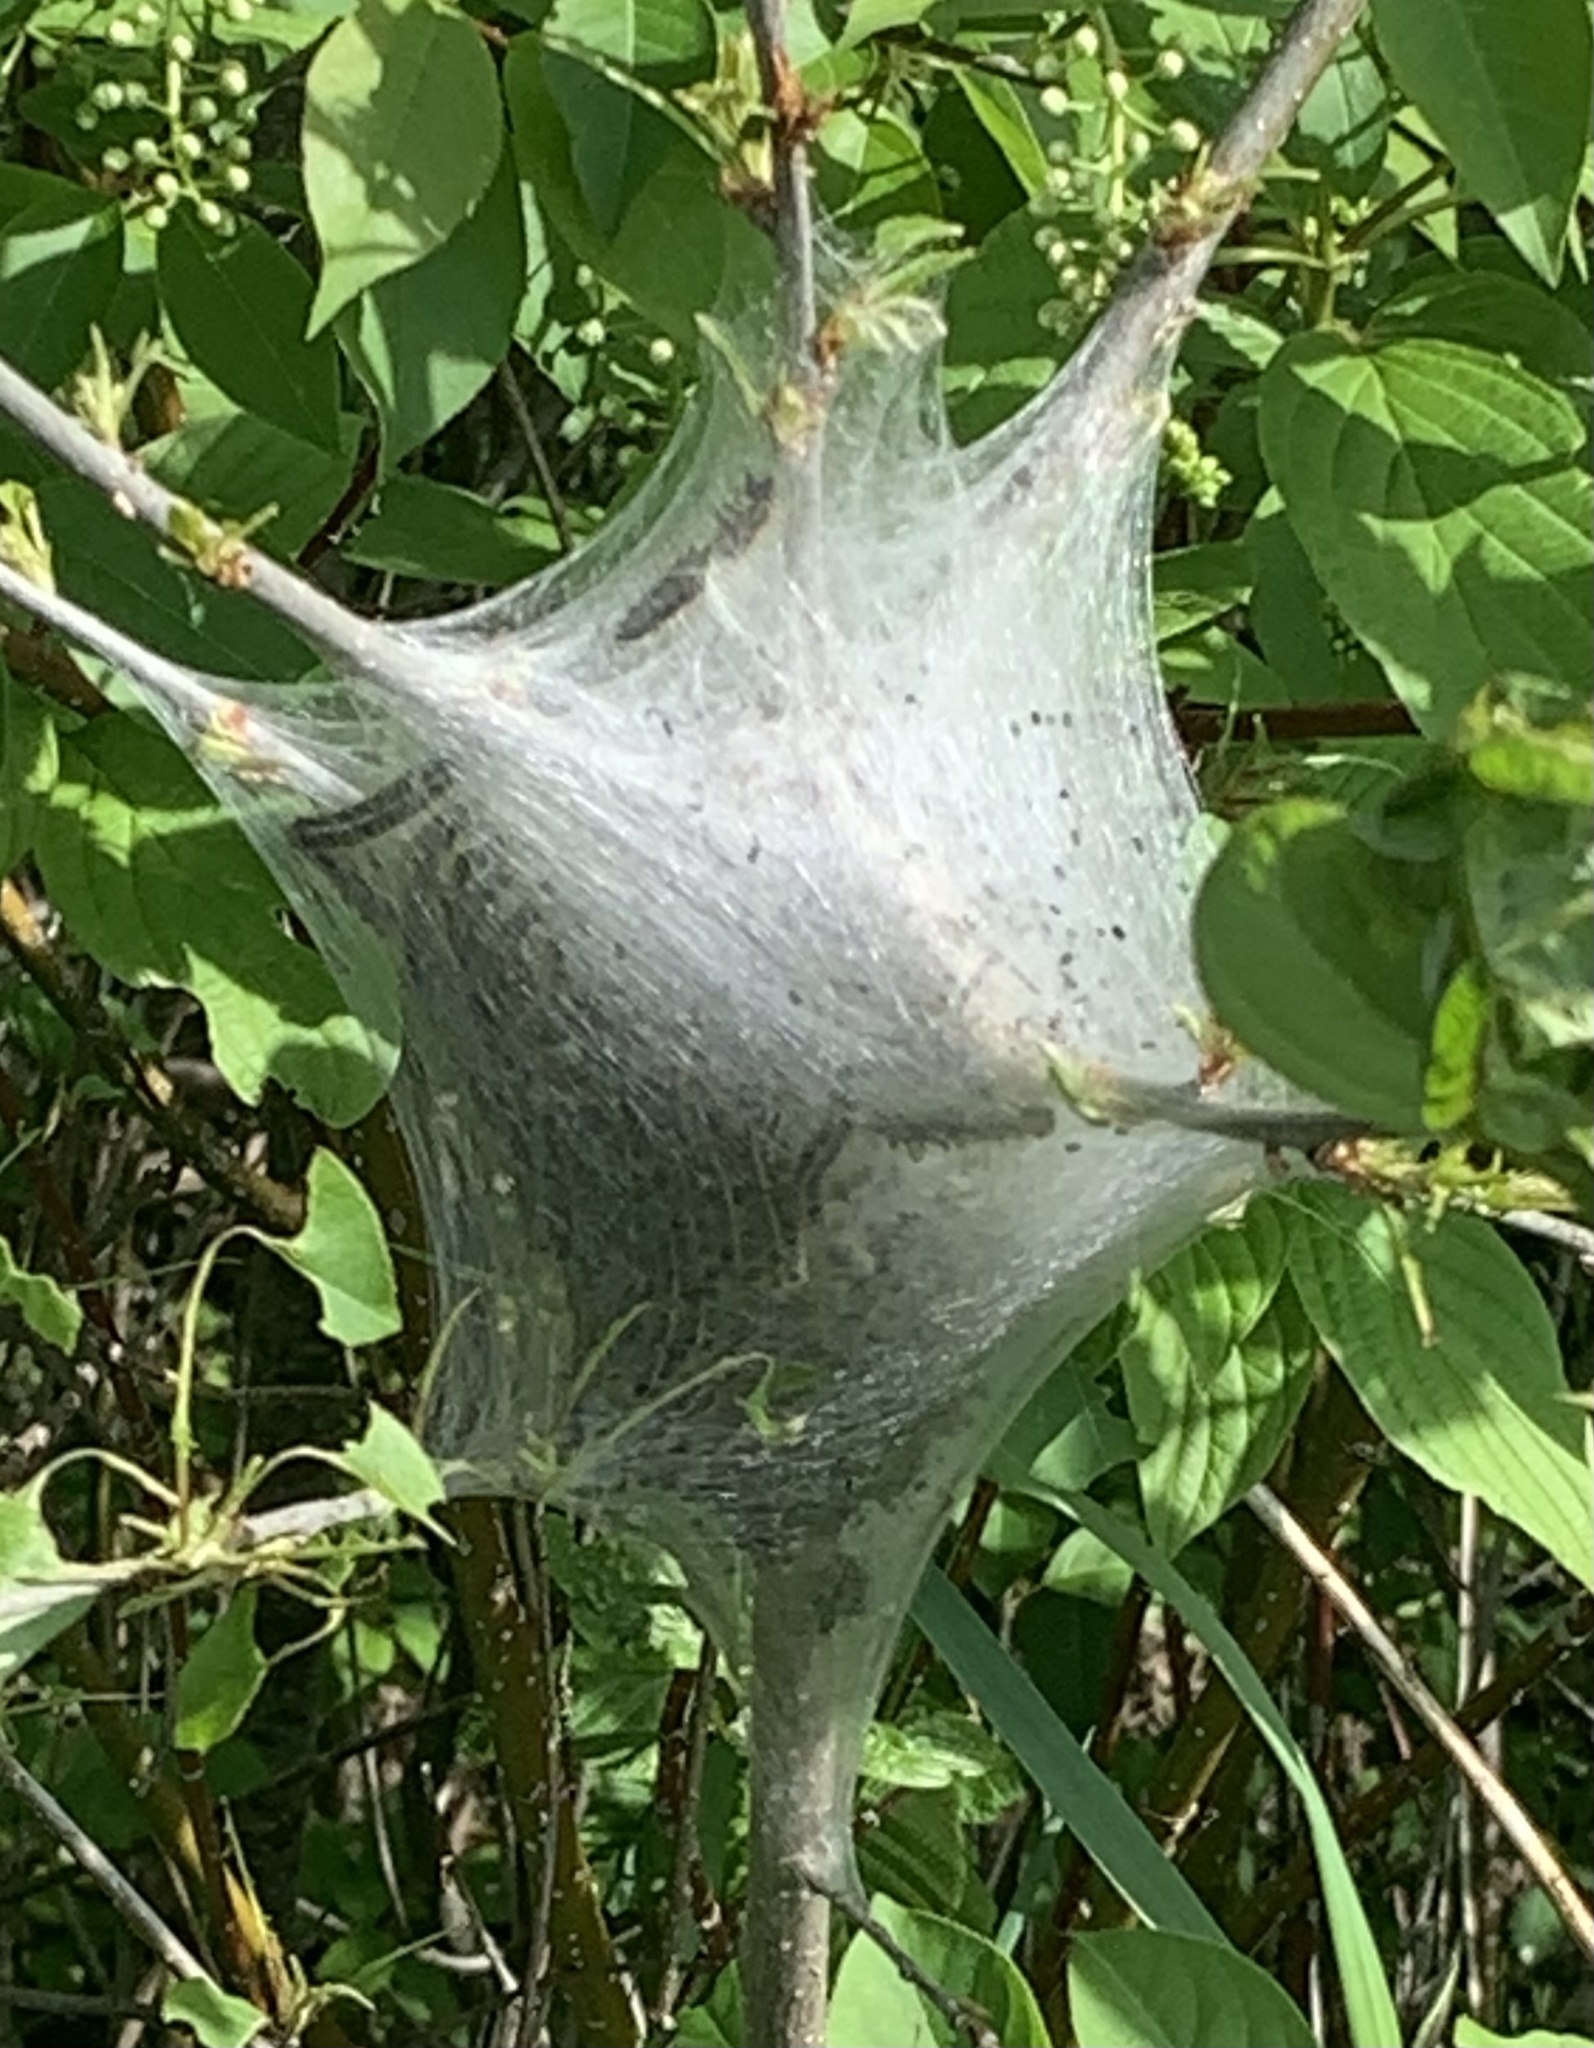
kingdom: Animalia
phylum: Arthropoda
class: Insecta
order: Lepidoptera
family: Lasiocampidae
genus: Malacosoma
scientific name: Malacosoma americana
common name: Eastern tent caterpillar moth
